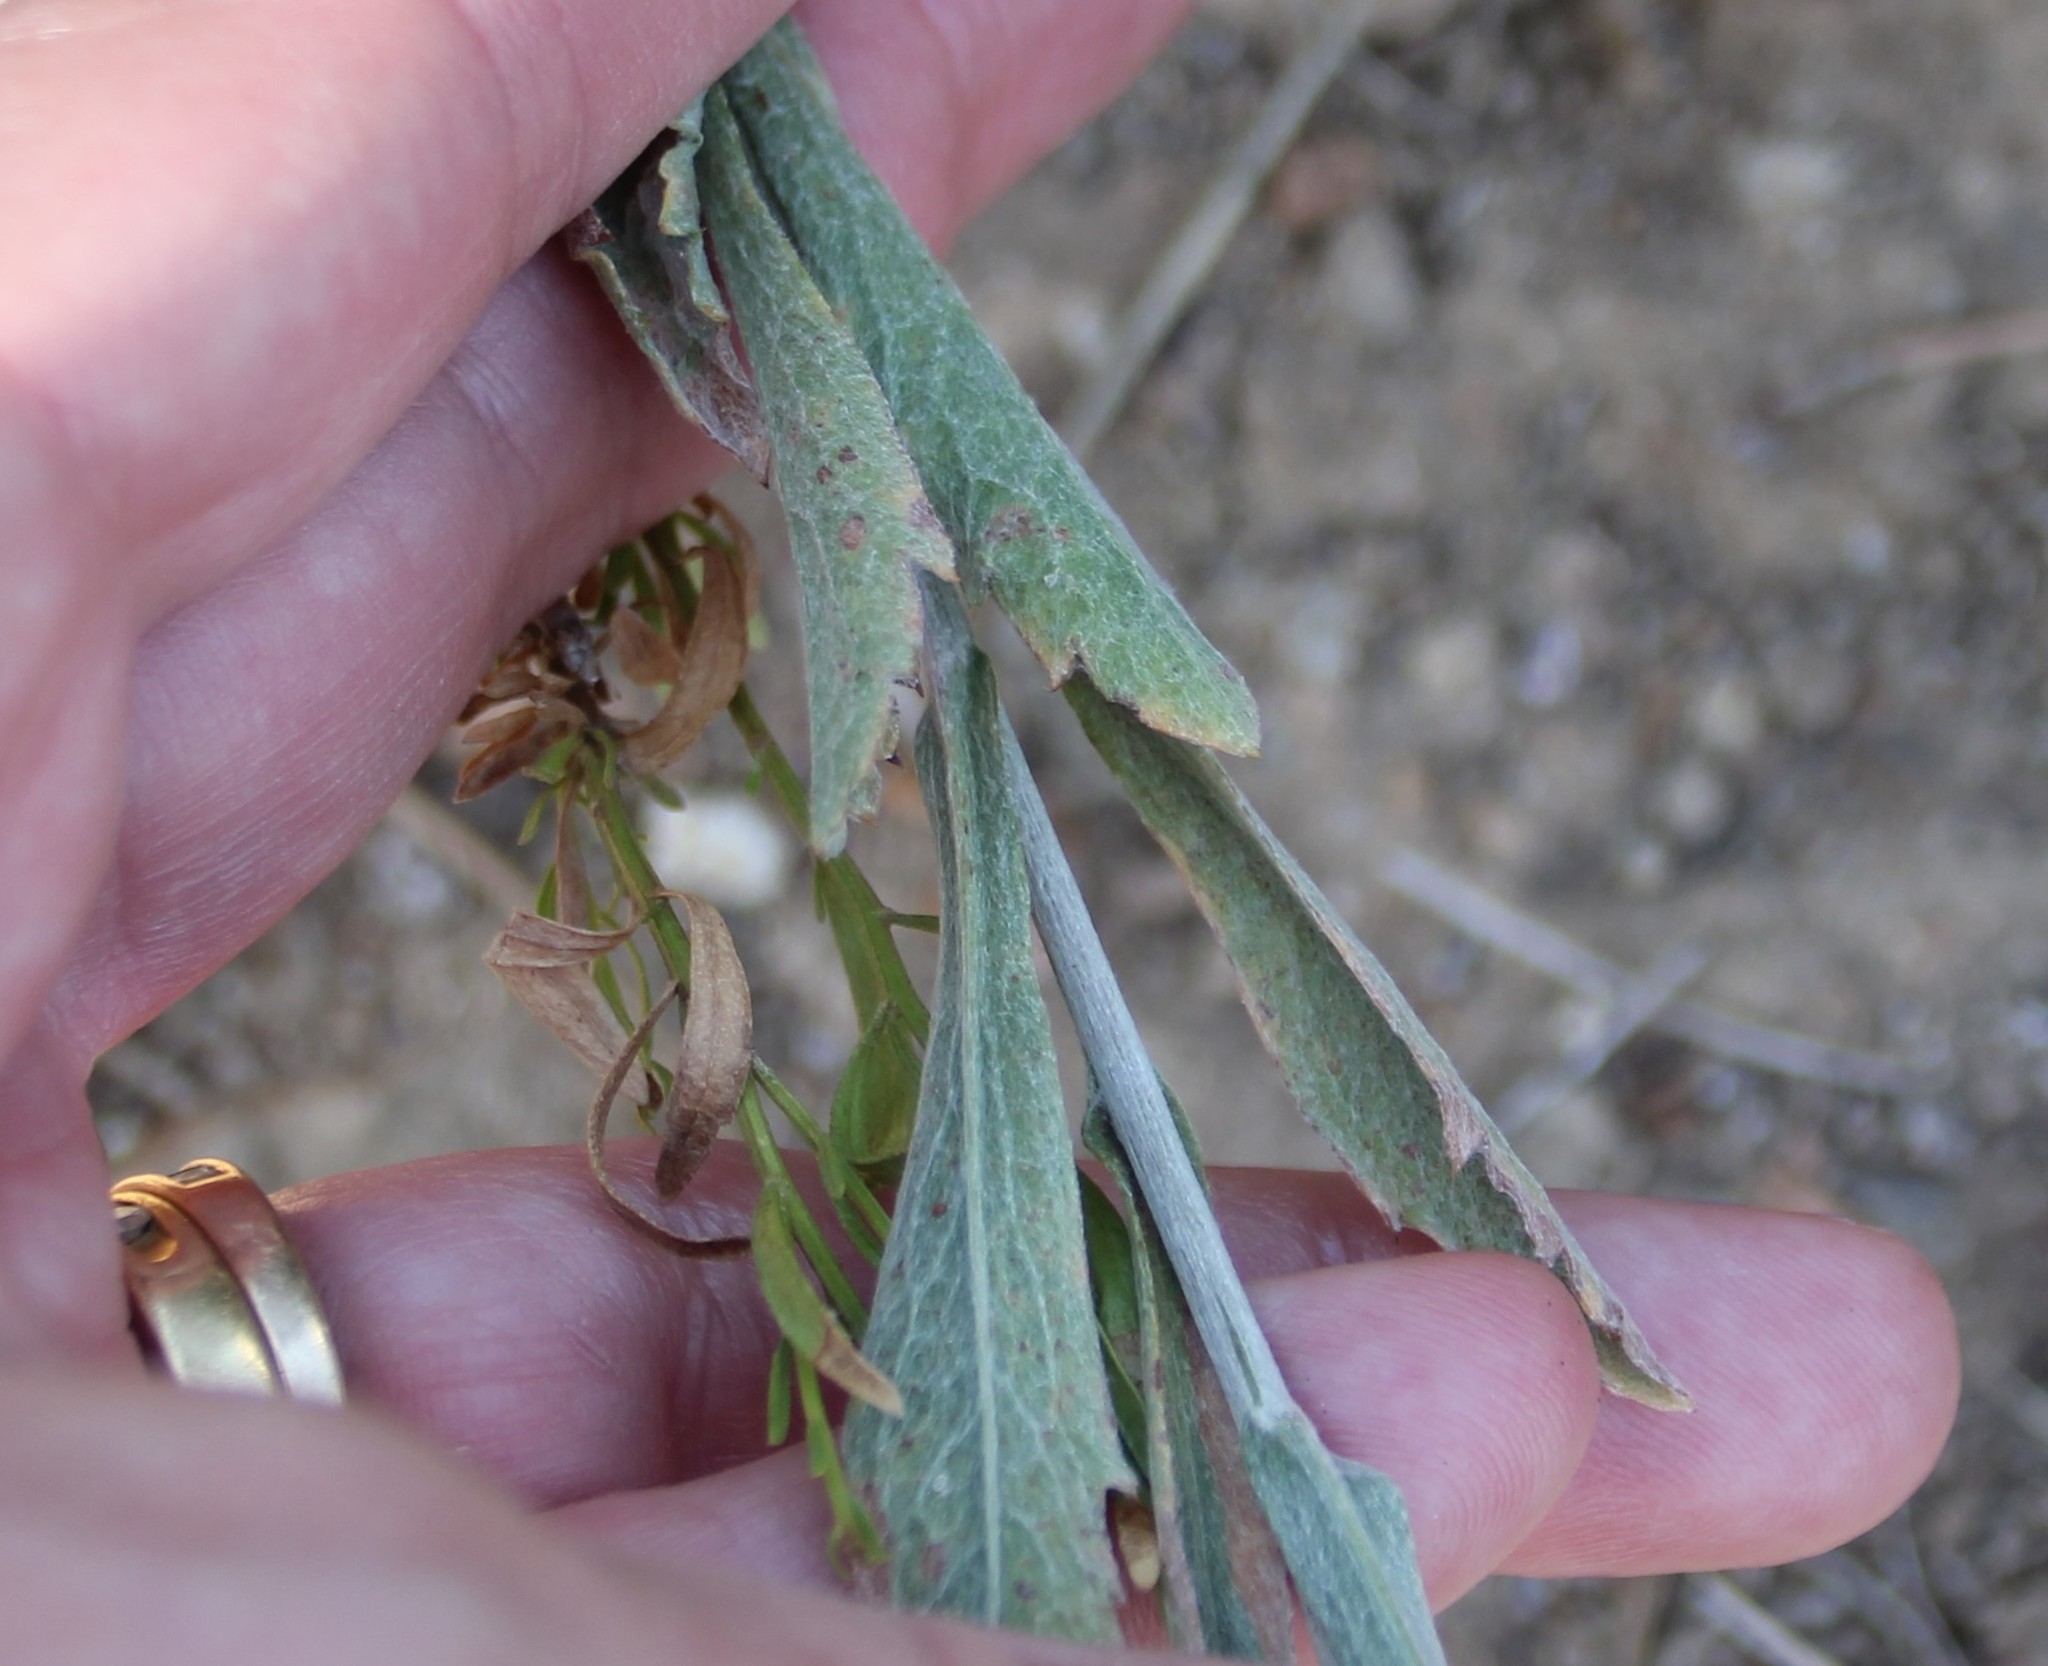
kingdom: Plantae
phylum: Tracheophyta
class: Magnoliopsida
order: Asterales
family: Asteraceae
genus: Corethrogyne
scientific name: Corethrogyne filaginifolia
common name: Sand-aster
